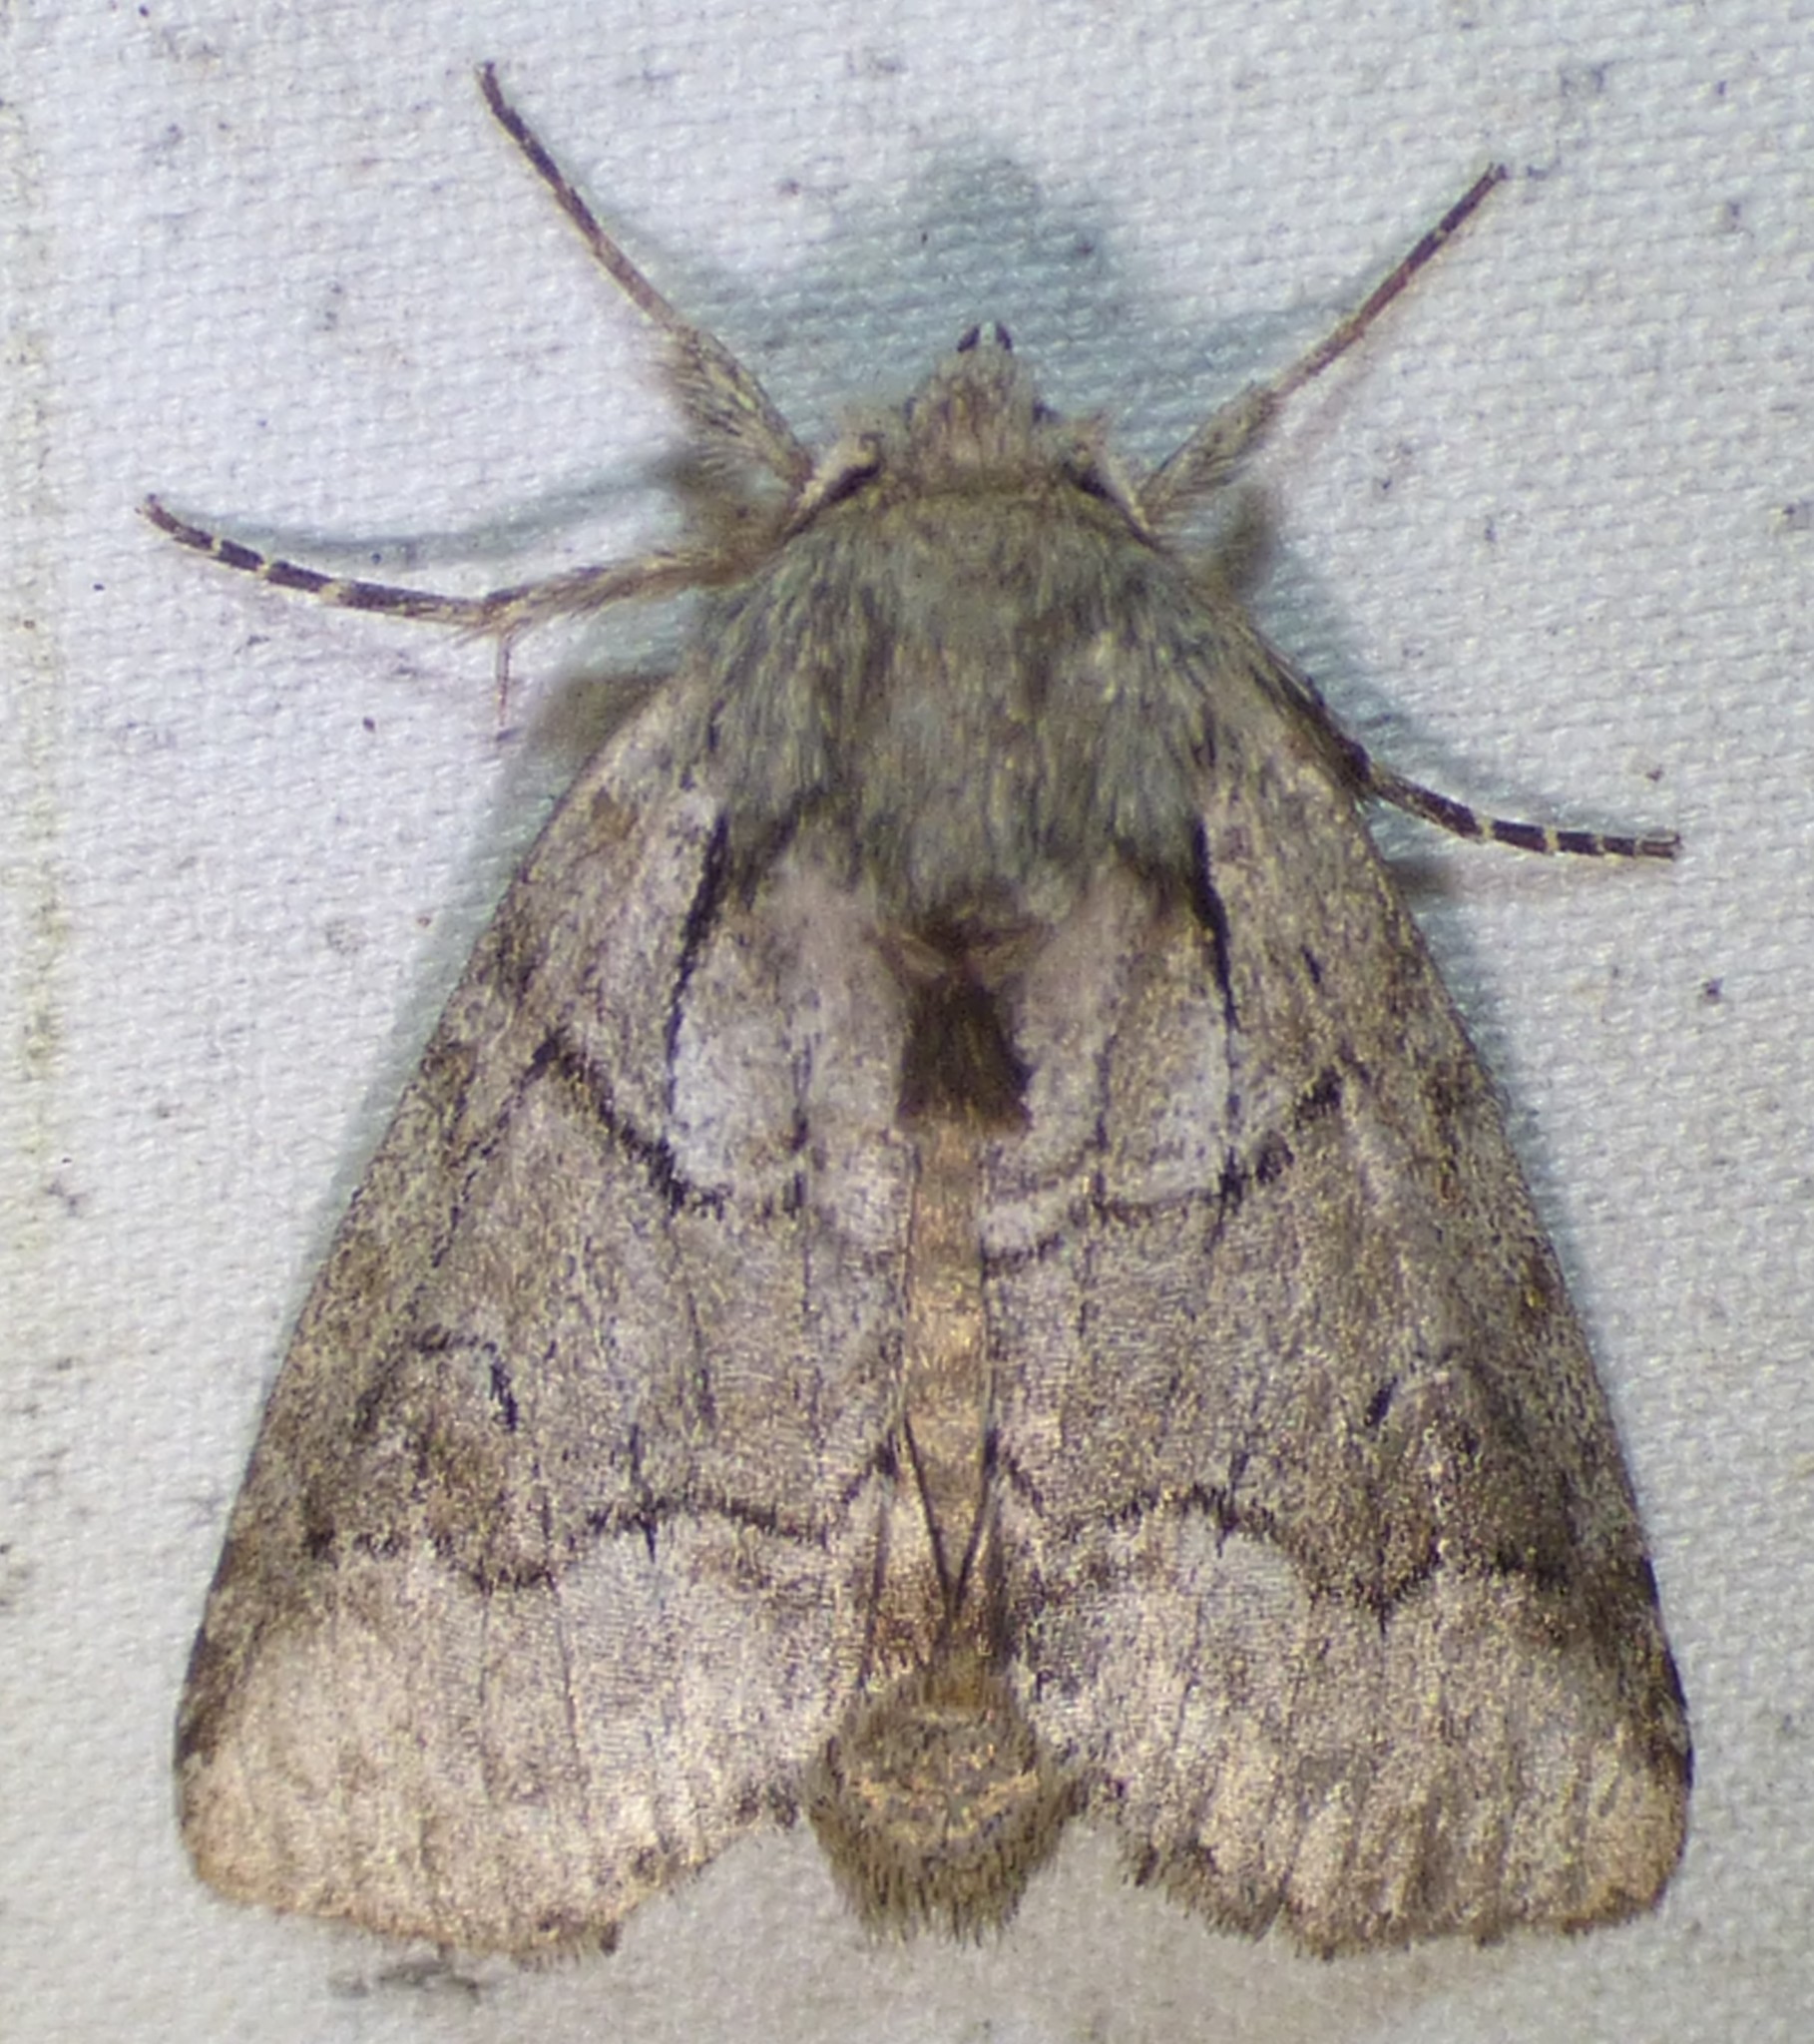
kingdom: Animalia
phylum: Arthropoda
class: Insecta
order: Lepidoptera
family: Notodontidae
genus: Lochmaeus
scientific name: Lochmaeus bilineata
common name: Double-lined prominent
